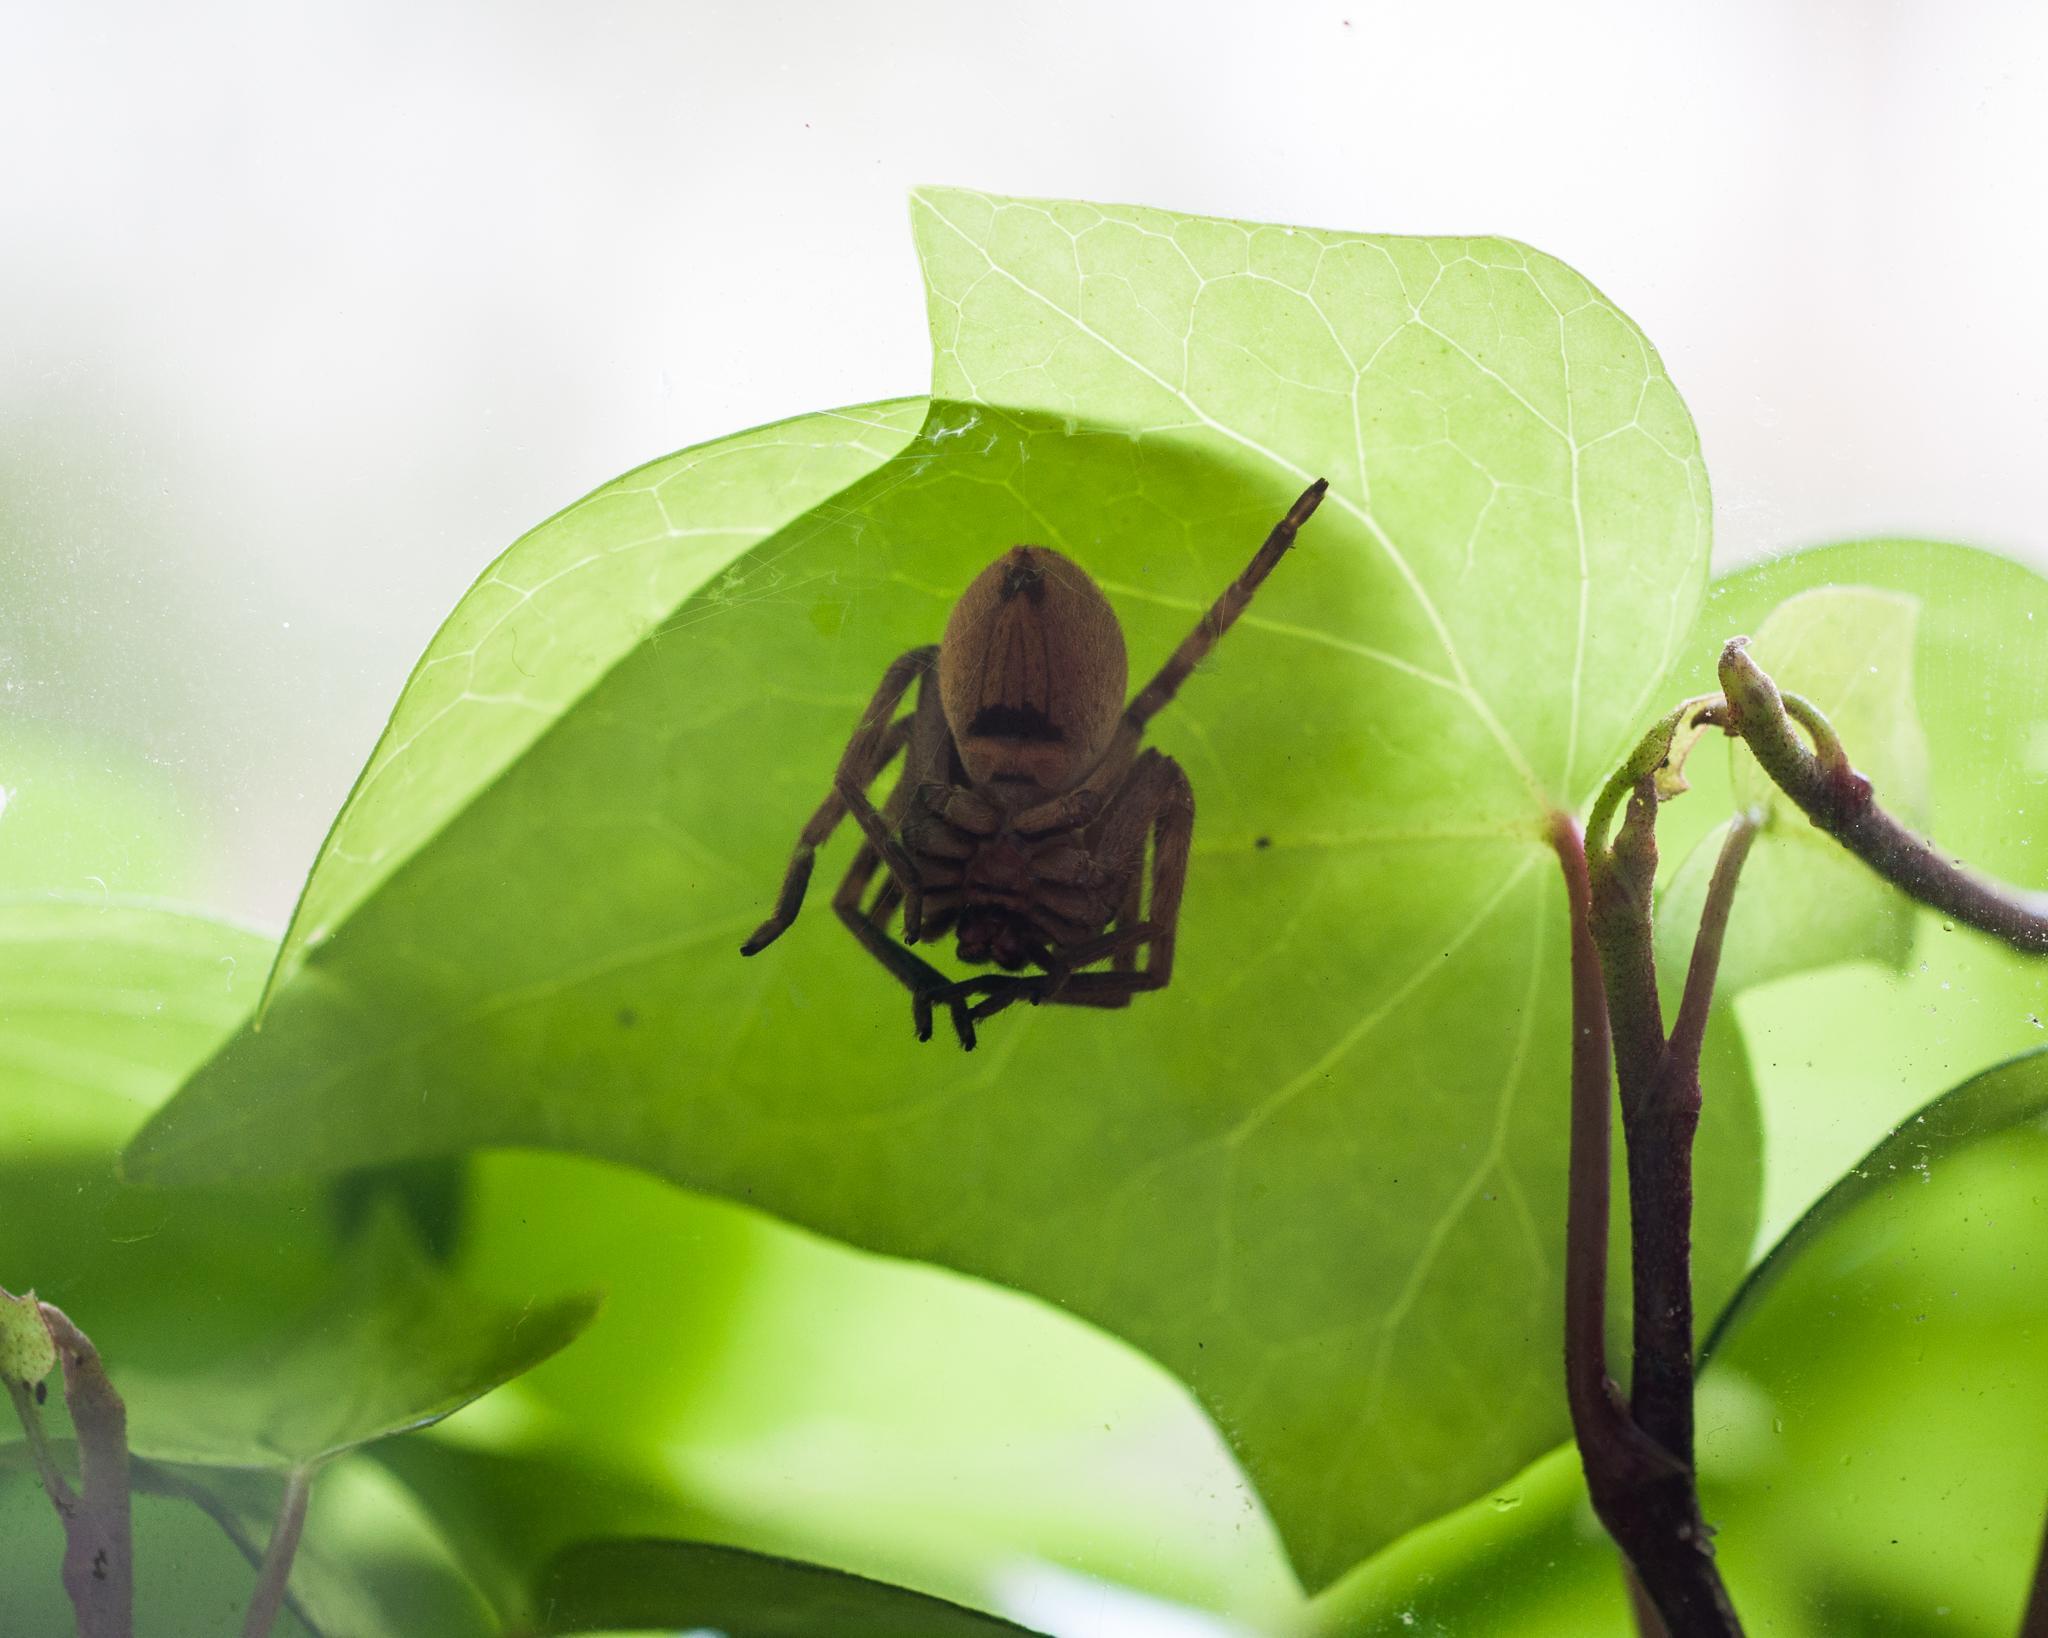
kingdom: Animalia
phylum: Arthropoda
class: Arachnida
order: Araneae
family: Sparassidae
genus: Palystes
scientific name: Palystes superciliosus
